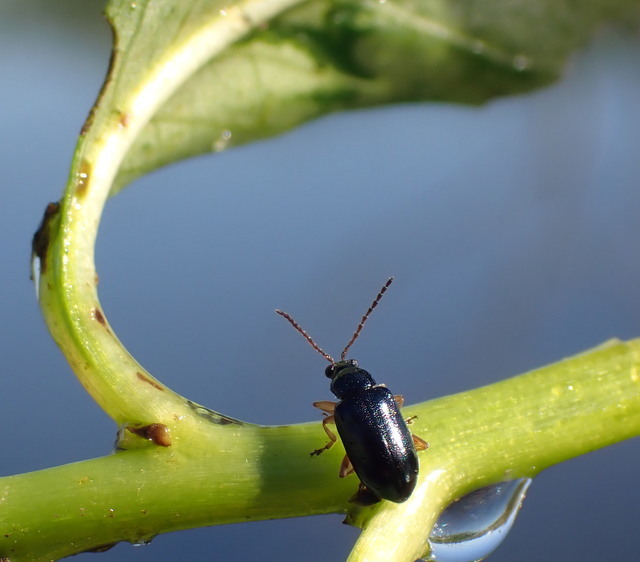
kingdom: Animalia
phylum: Arthropoda
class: Insecta
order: Coleoptera
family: Chrysomelidae
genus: Lysathia
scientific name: Lysathia ludoviciana
